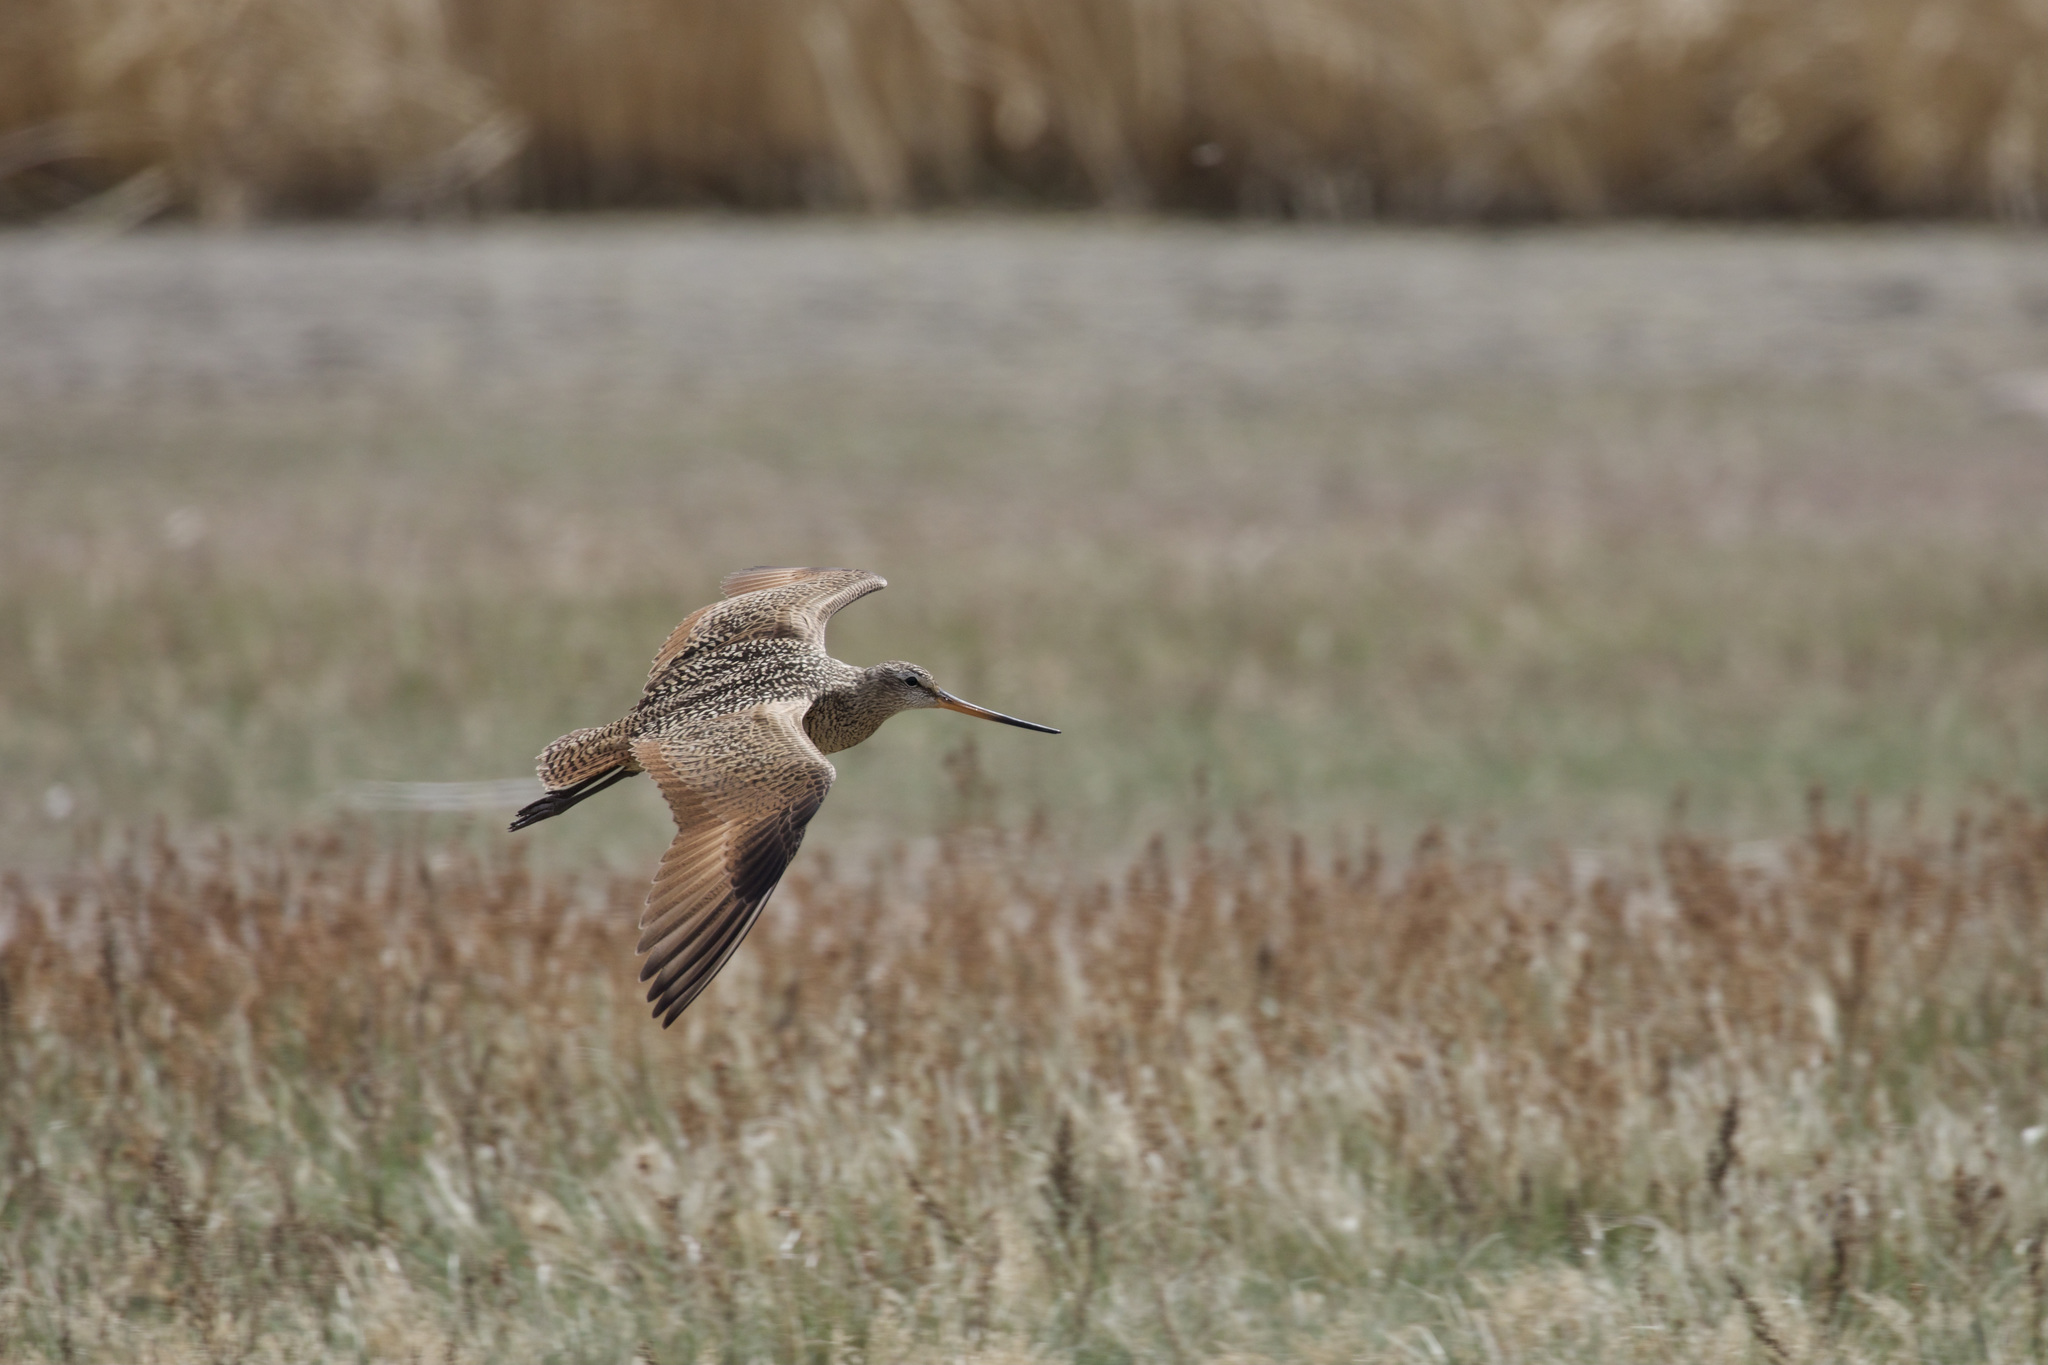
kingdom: Animalia
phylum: Chordata
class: Aves
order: Charadriiformes
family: Scolopacidae
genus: Limosa
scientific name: Limosa fedoa
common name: Marbled godwit
